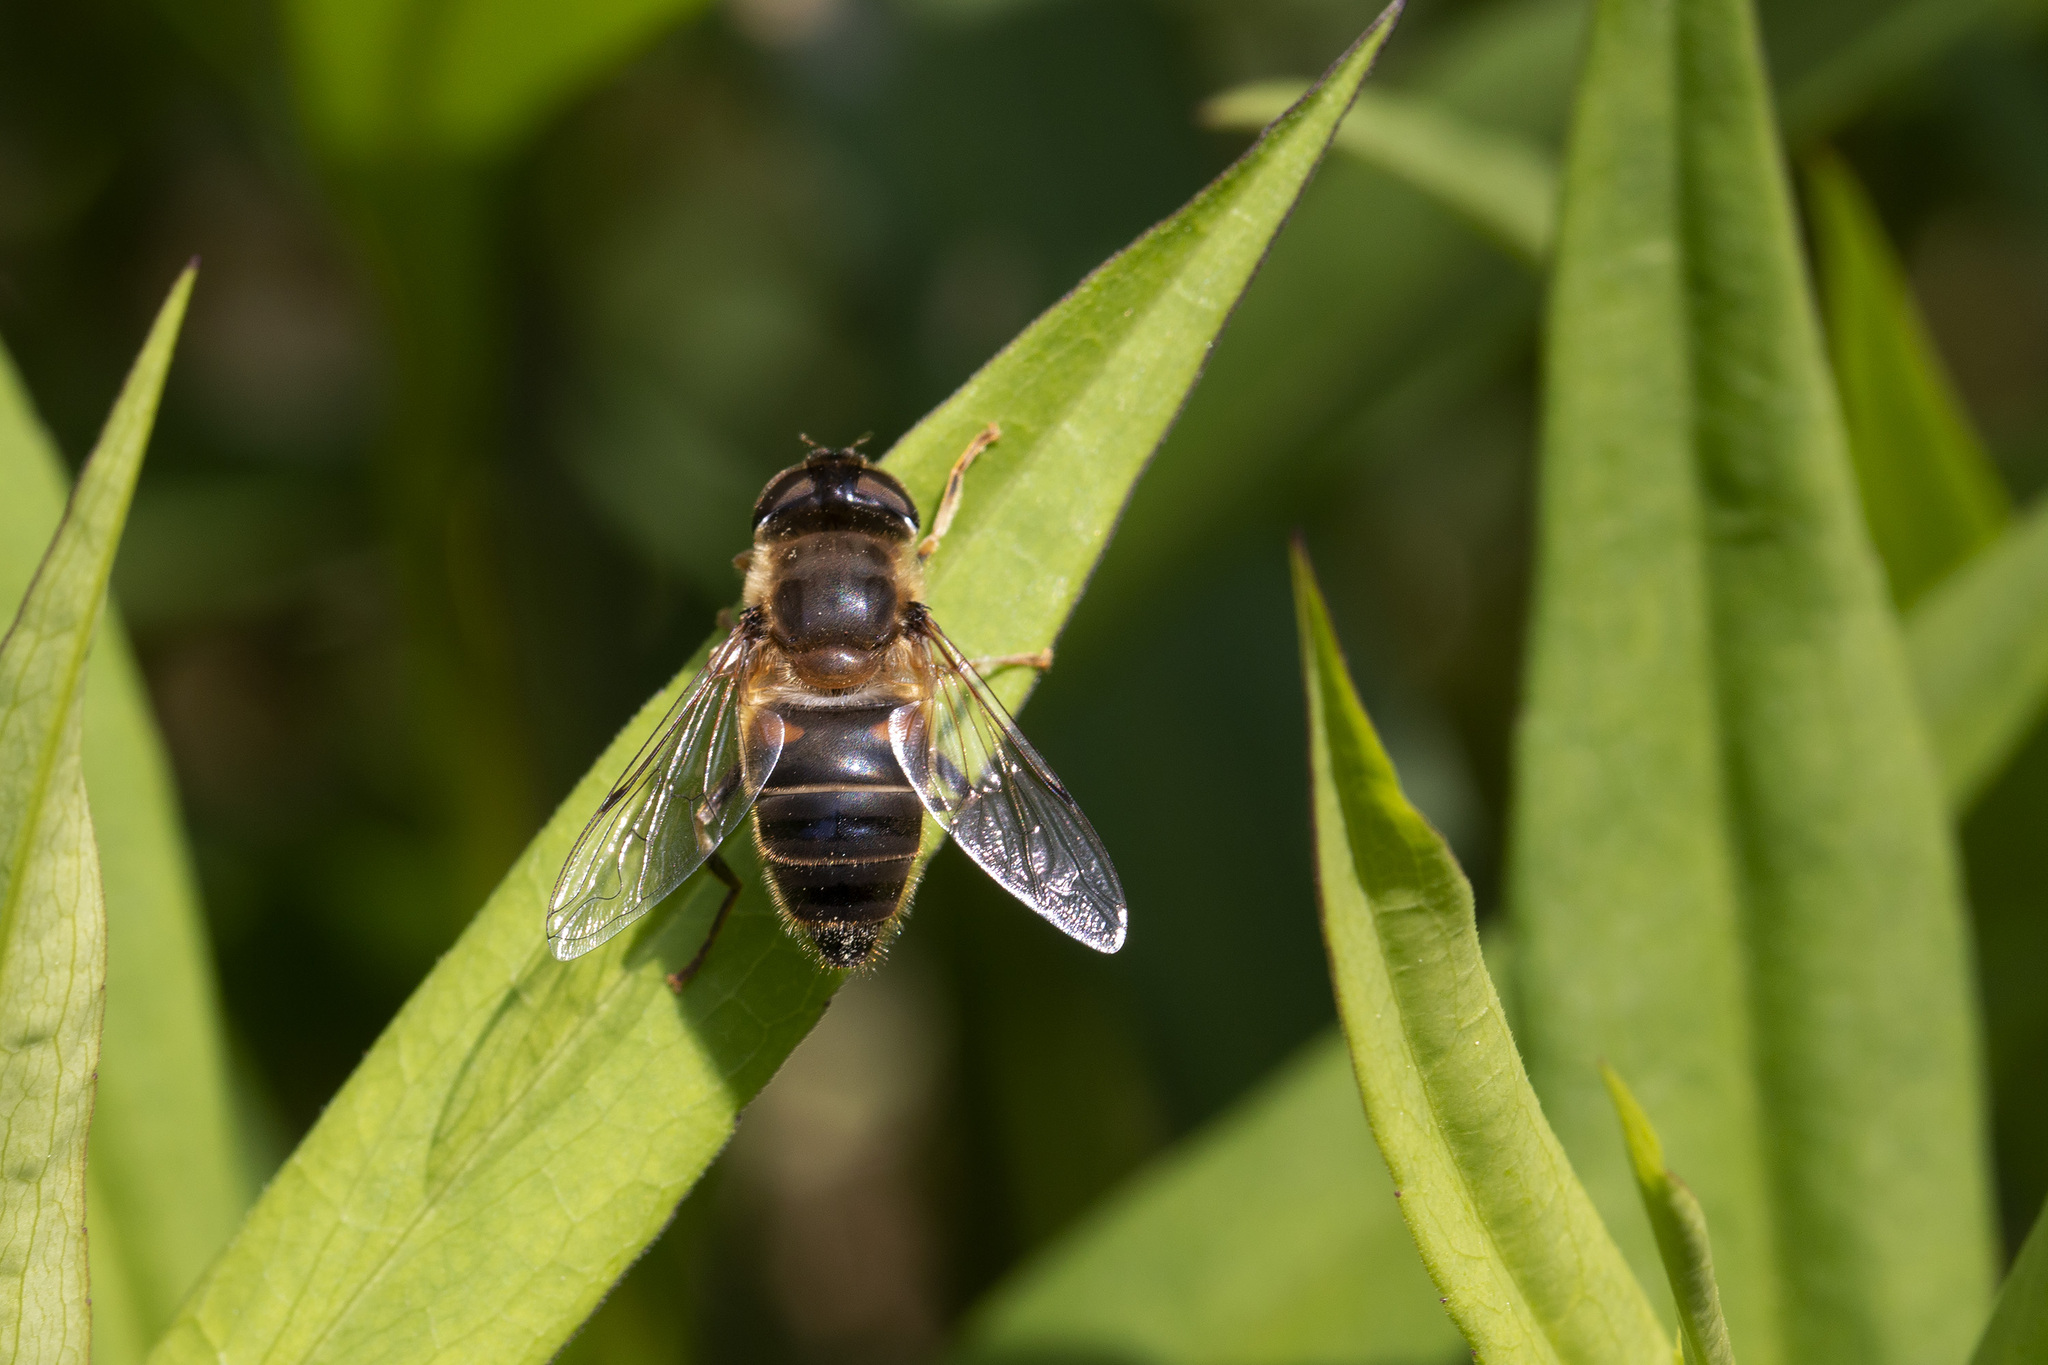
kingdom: Animalia
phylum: Arthropoda
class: Insecta
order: Diptera
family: Syrphidae
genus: Eristalis
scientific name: Eristalis pertinax
